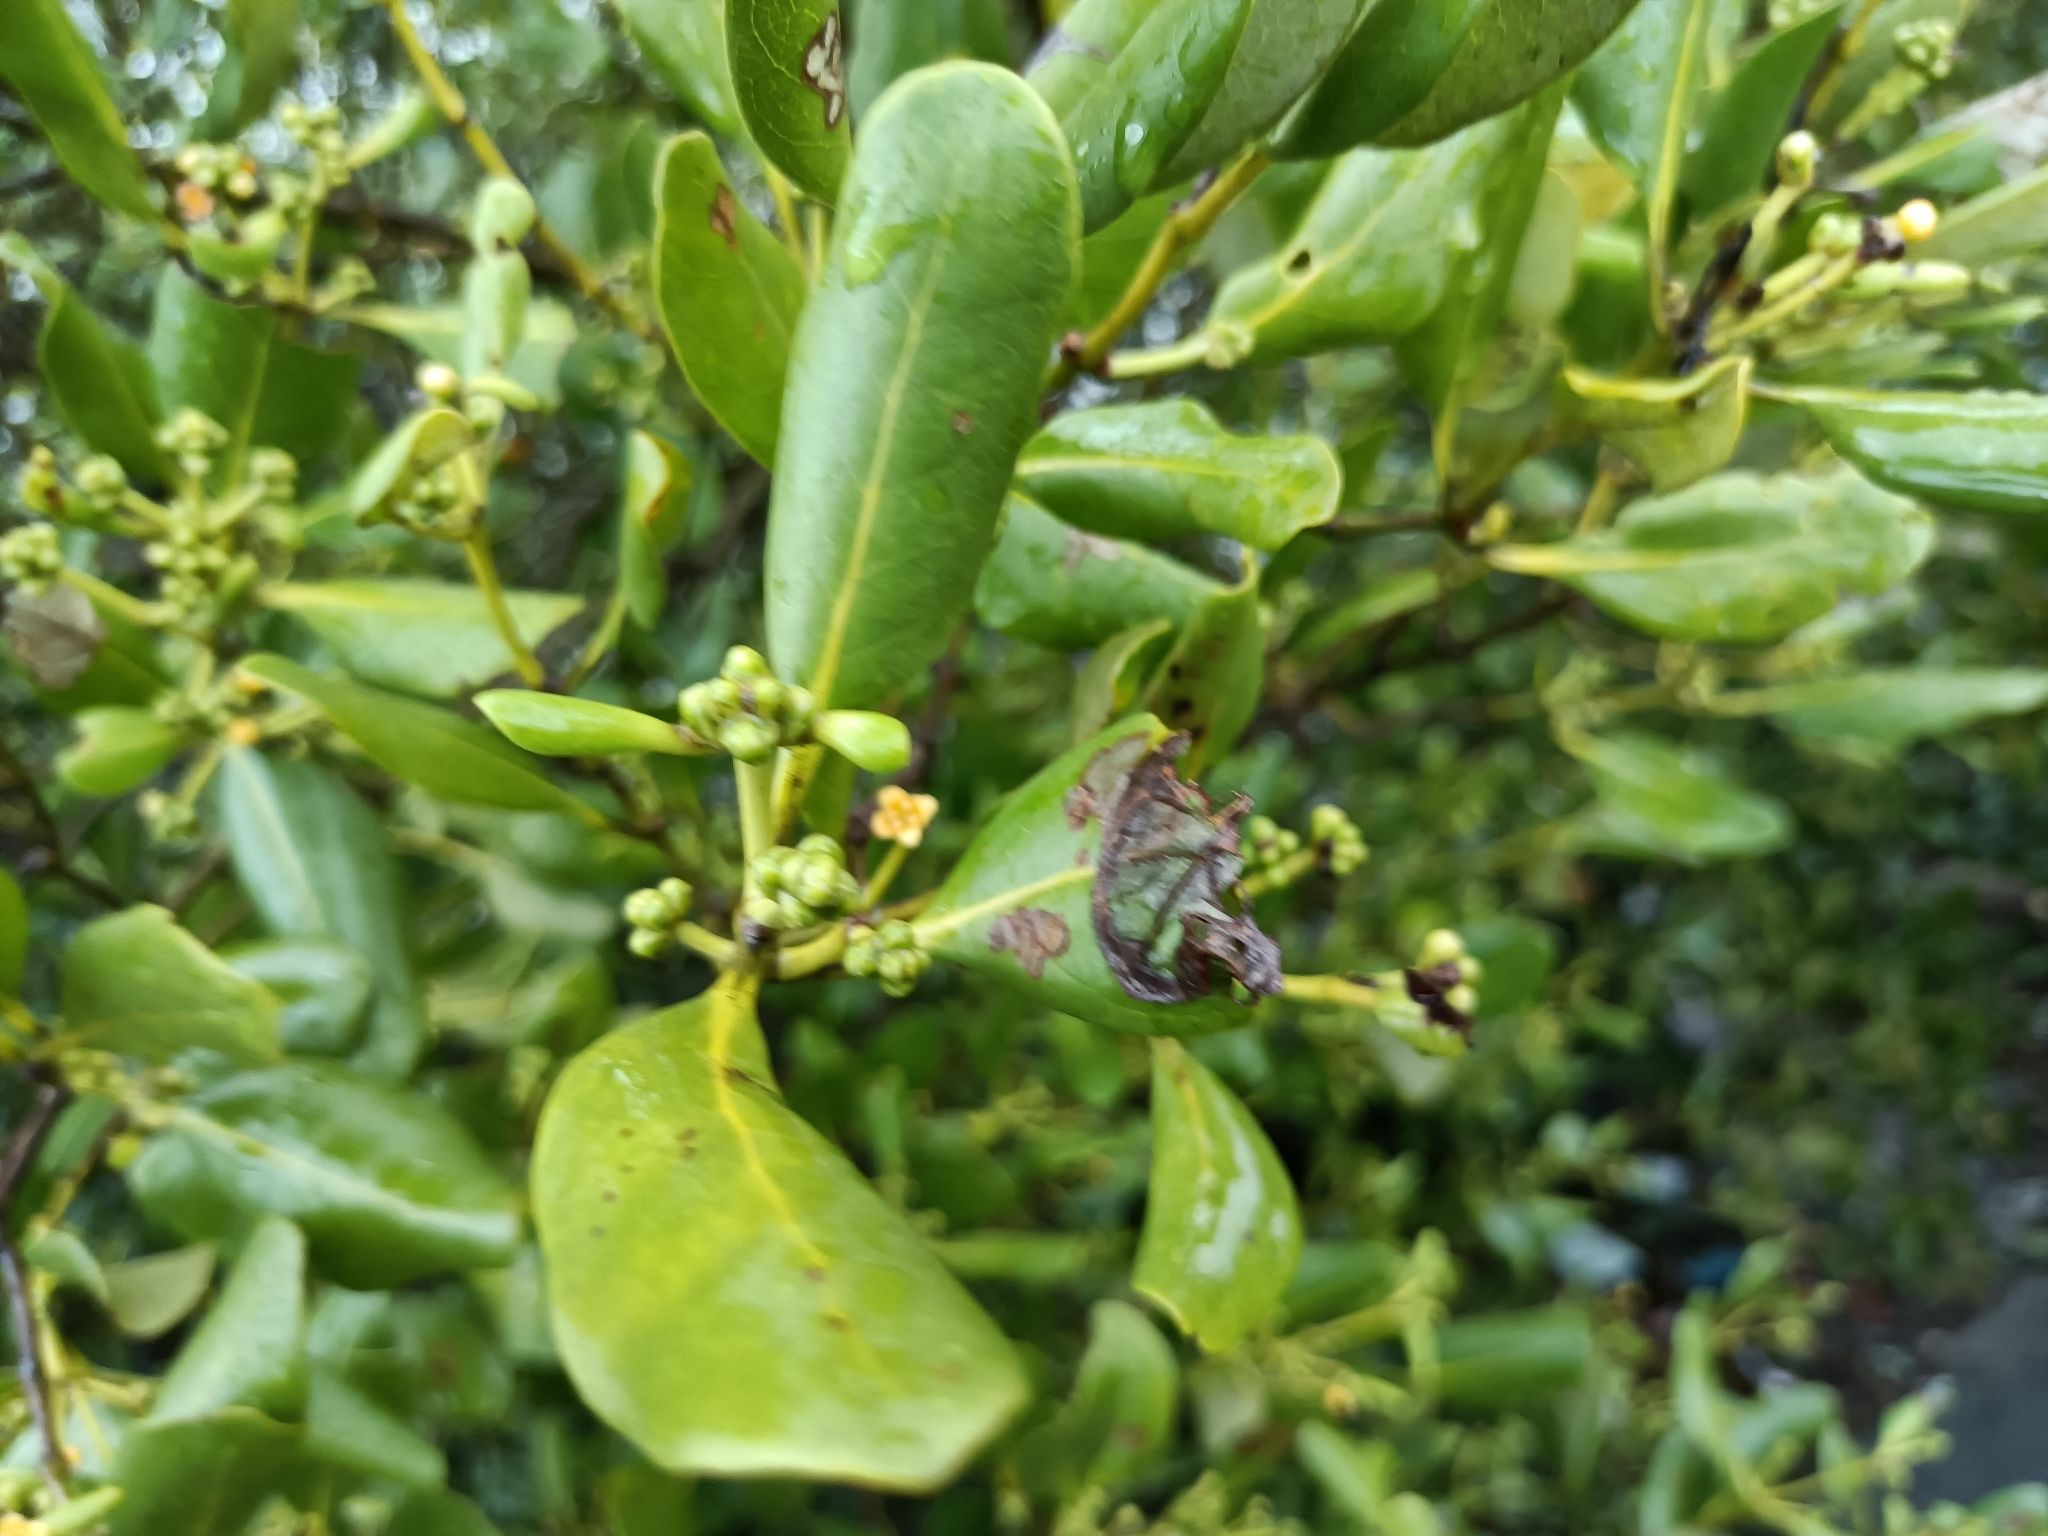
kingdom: Plantae
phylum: Tracheophyta
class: Magnoliopsida
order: Lamiales
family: Acanthaceae
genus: Avicennia
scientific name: Avicennia marina
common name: Gray mangrove
